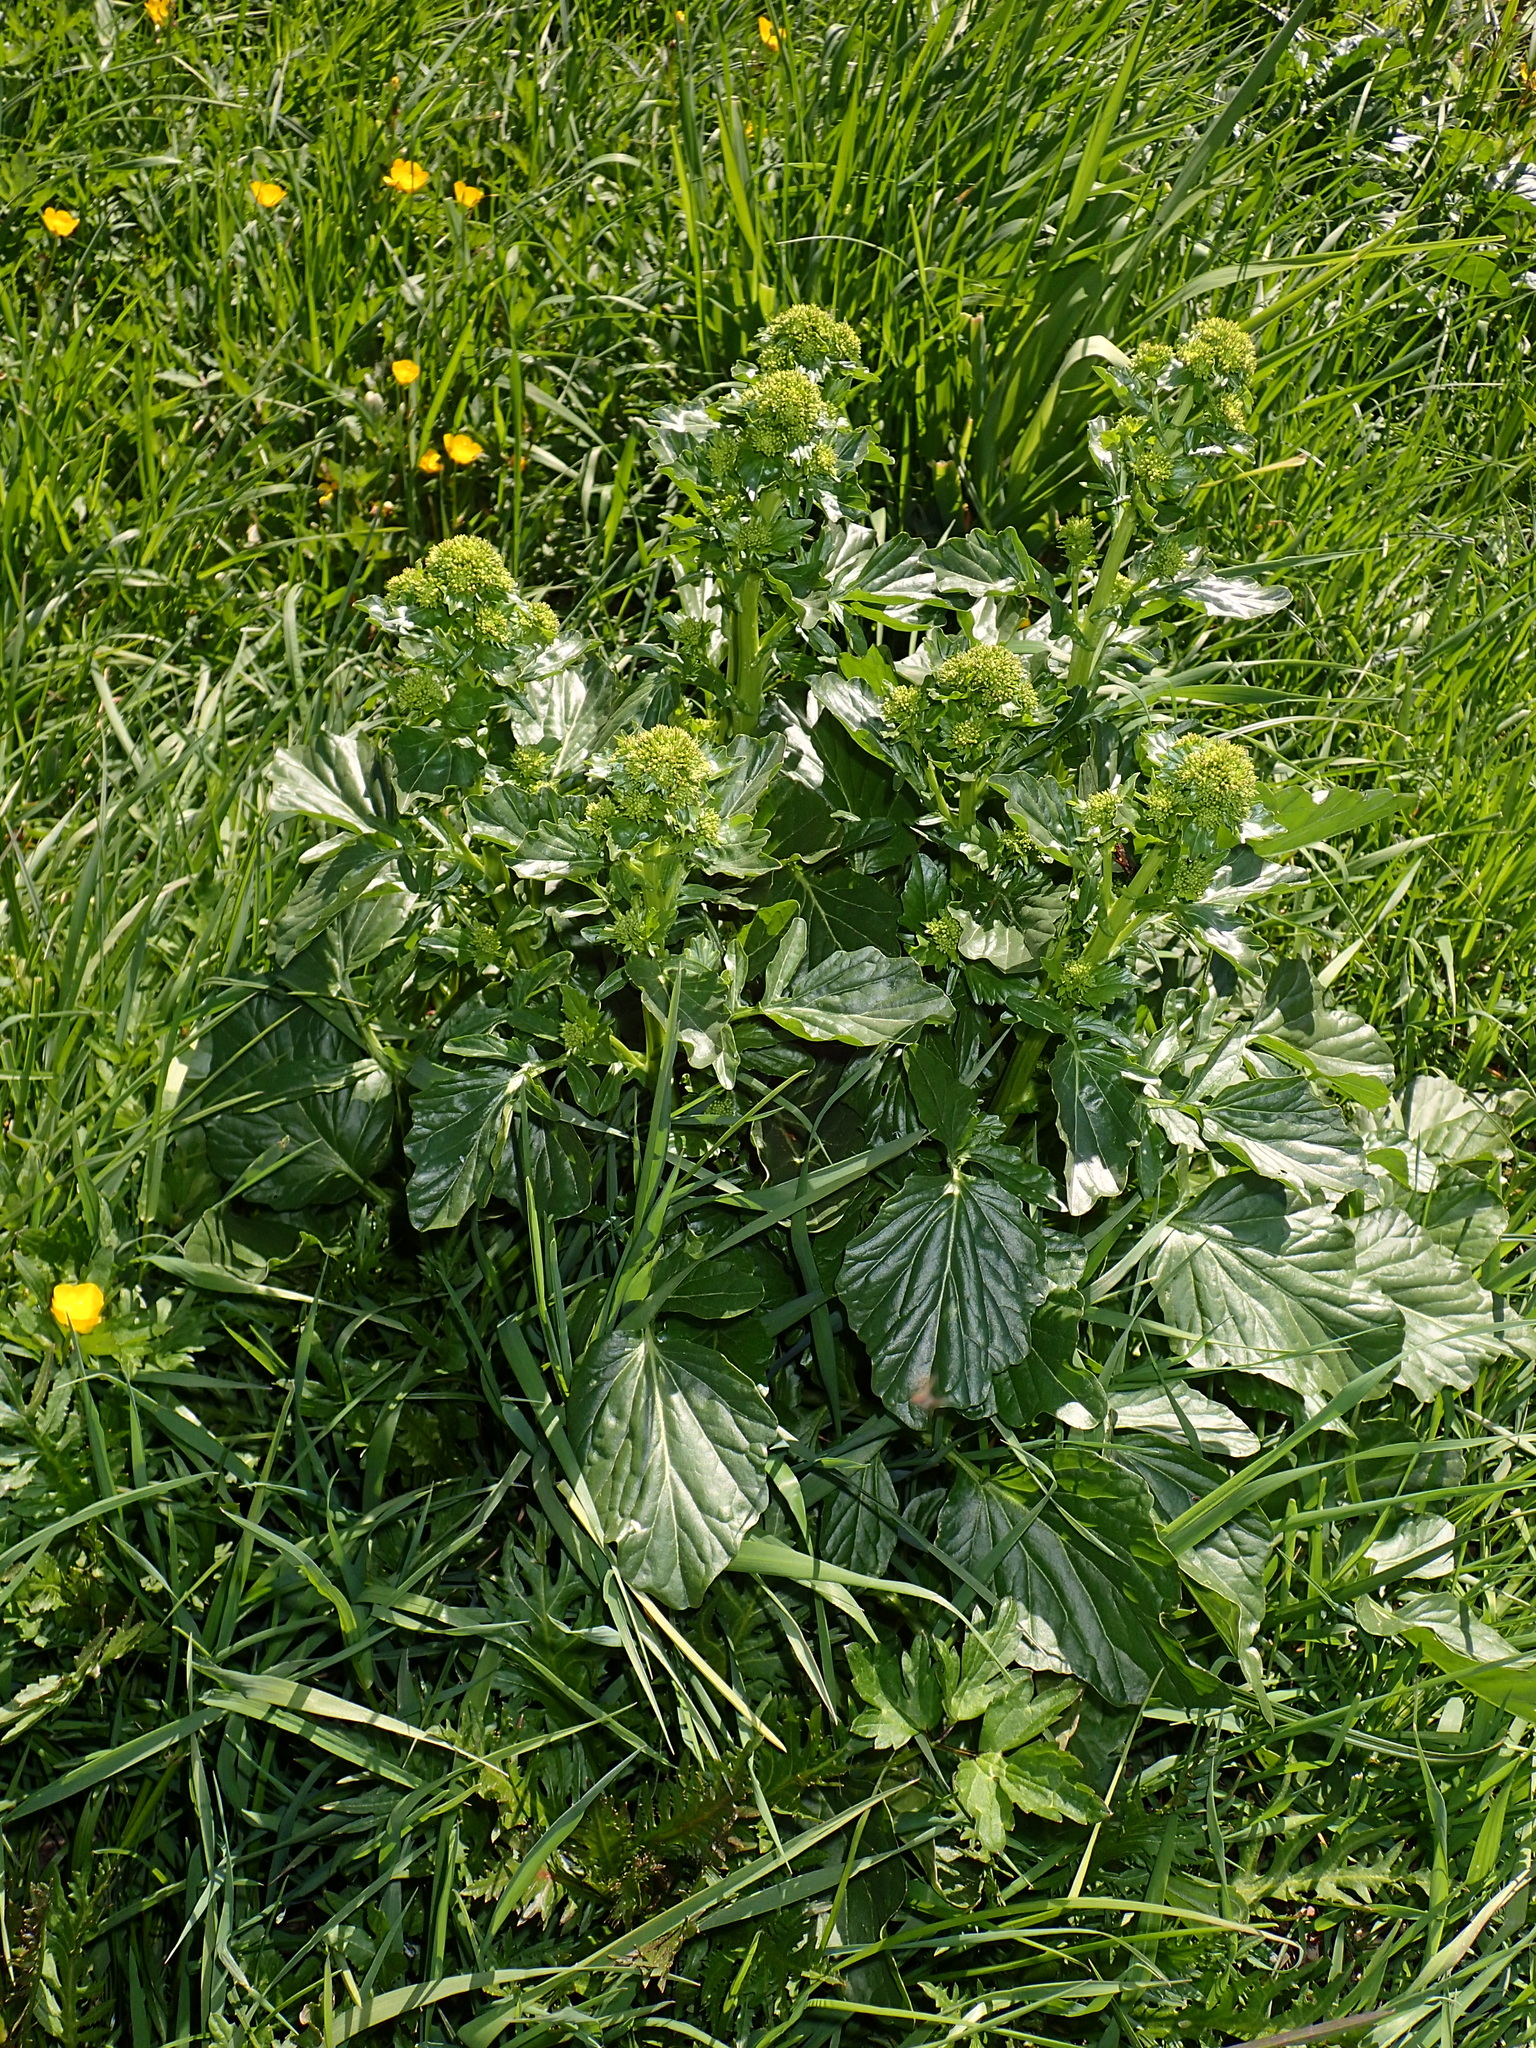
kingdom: Plantae
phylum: Tracheophyta
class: Magnoliopsida
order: Brassicales
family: Brassicaceae
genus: Barbarea
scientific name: Barbarea vulgaris
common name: Cressy-greens
